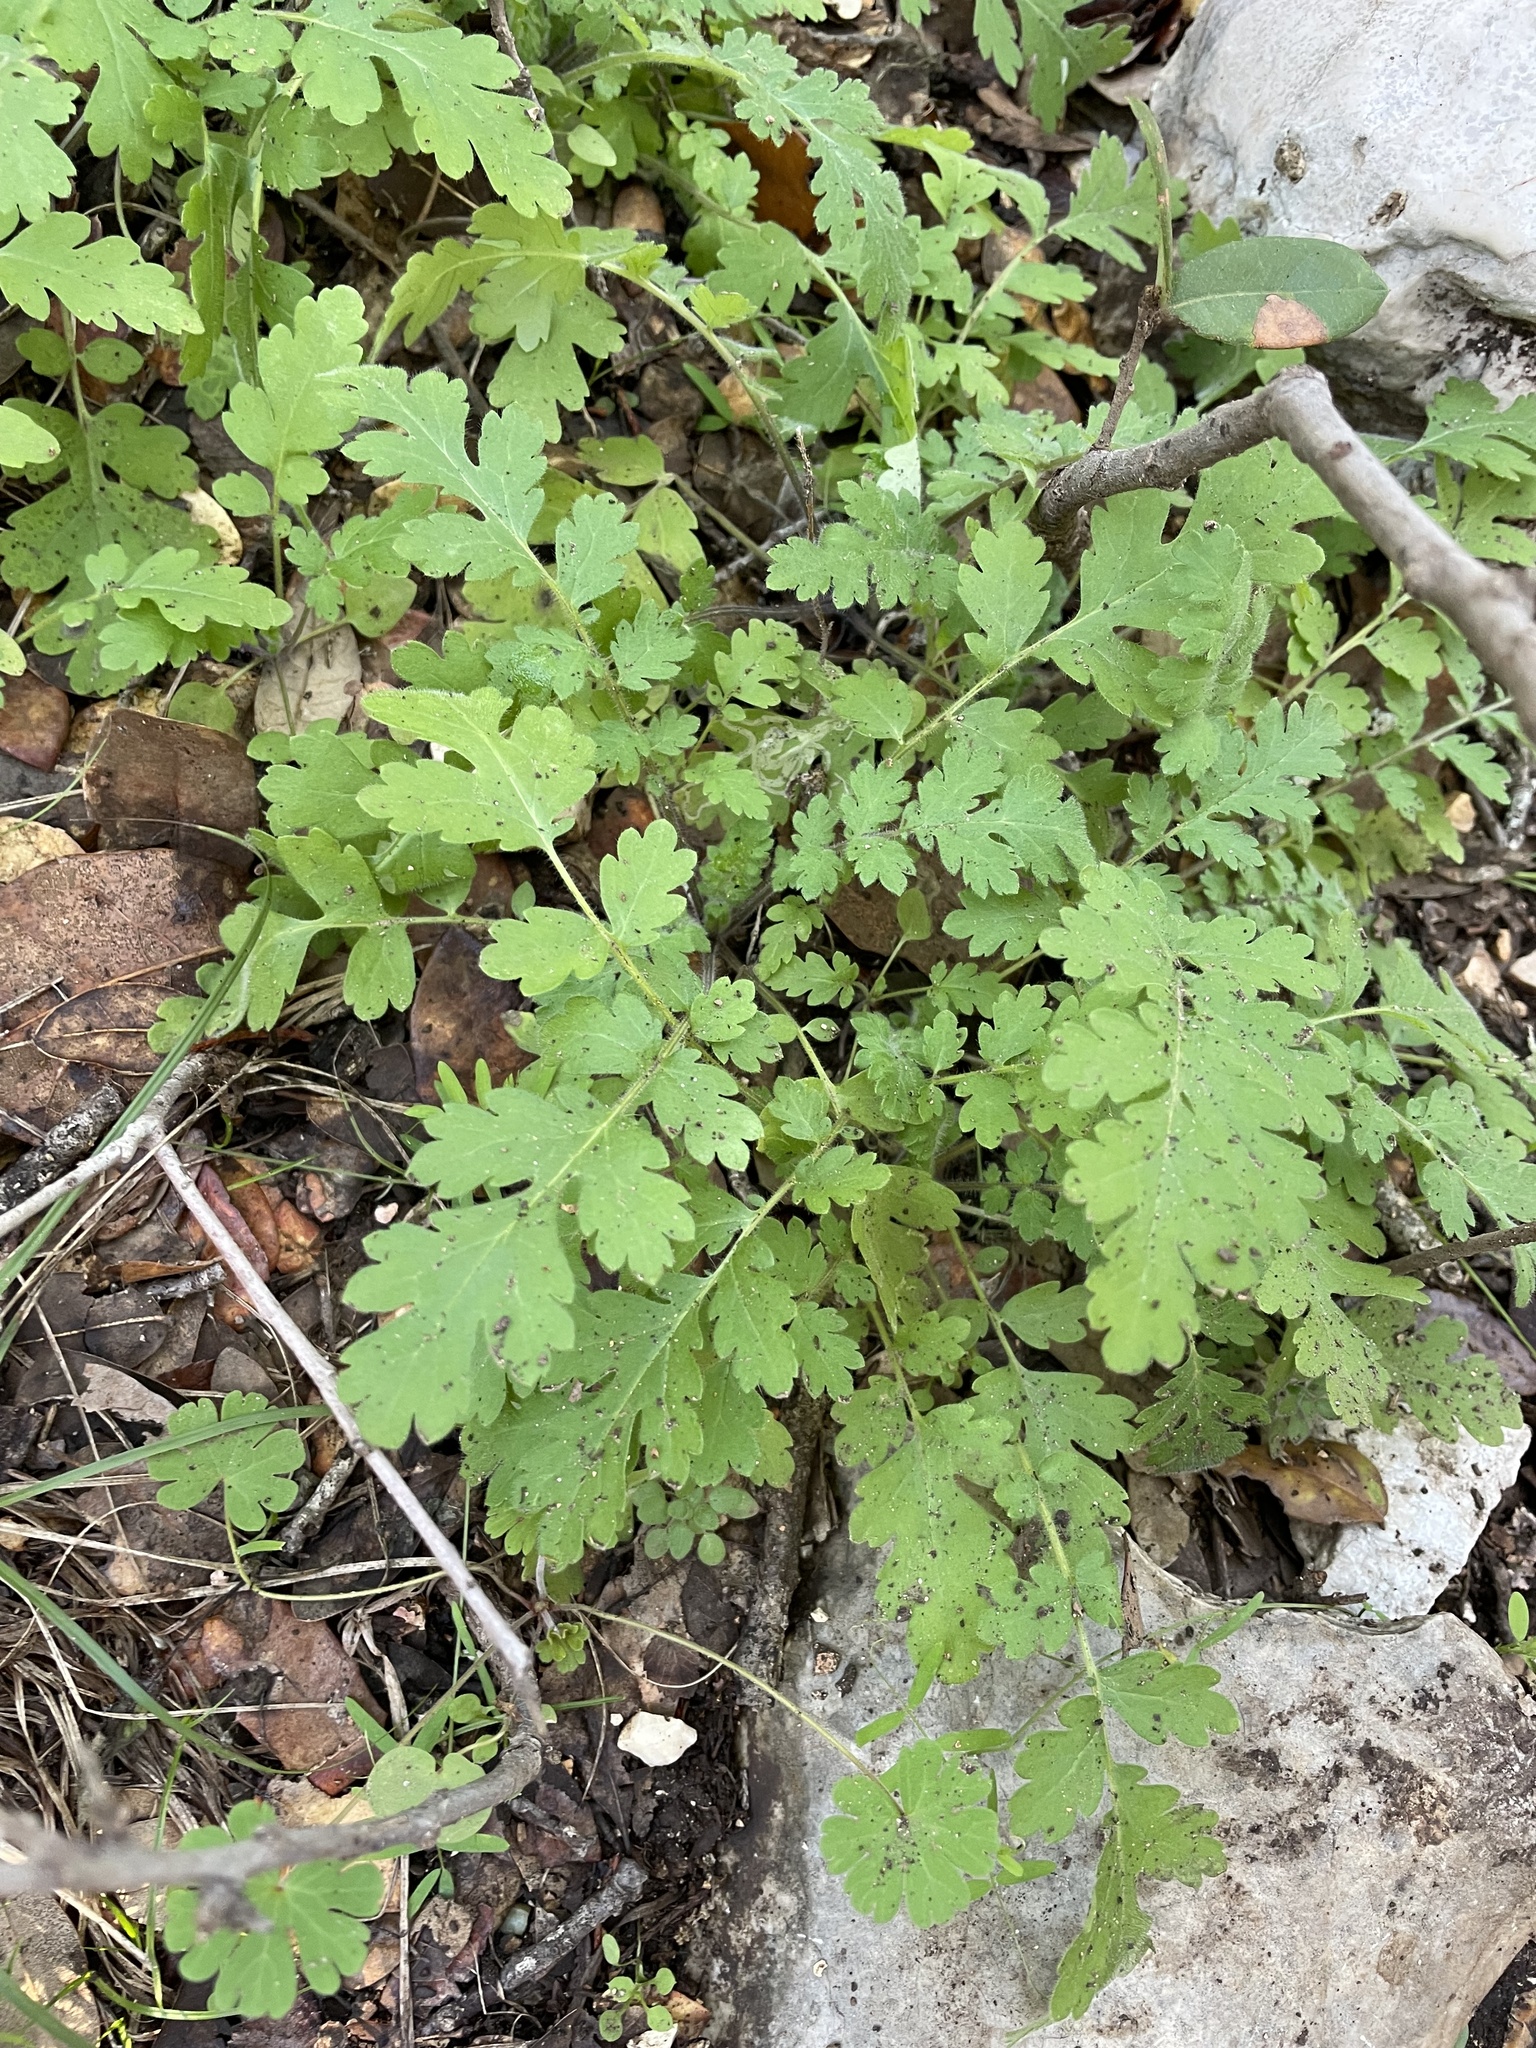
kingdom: Plantae
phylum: Tracheophyta
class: Magnoliopsida
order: Boraginales
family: Hydrophyllaceae
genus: Phacelia
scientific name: Phacelia congesta
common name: Blue curls
